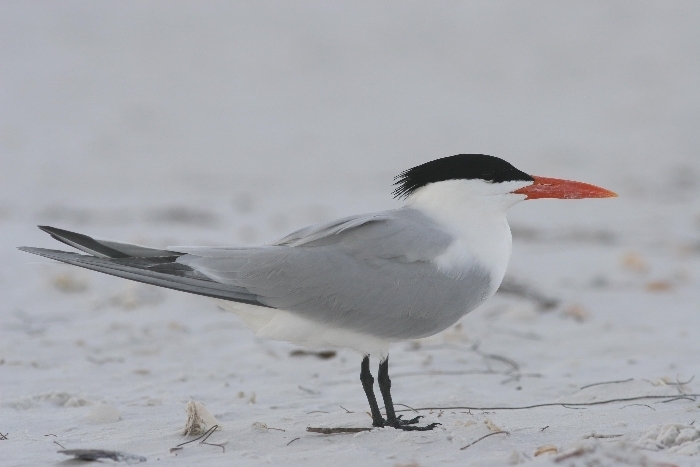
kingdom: Animalia
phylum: Chordata
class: Aves
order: Charadriiformes
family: Laridae
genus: Thalasseus
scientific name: Thalasseus maximus
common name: Royal tern
